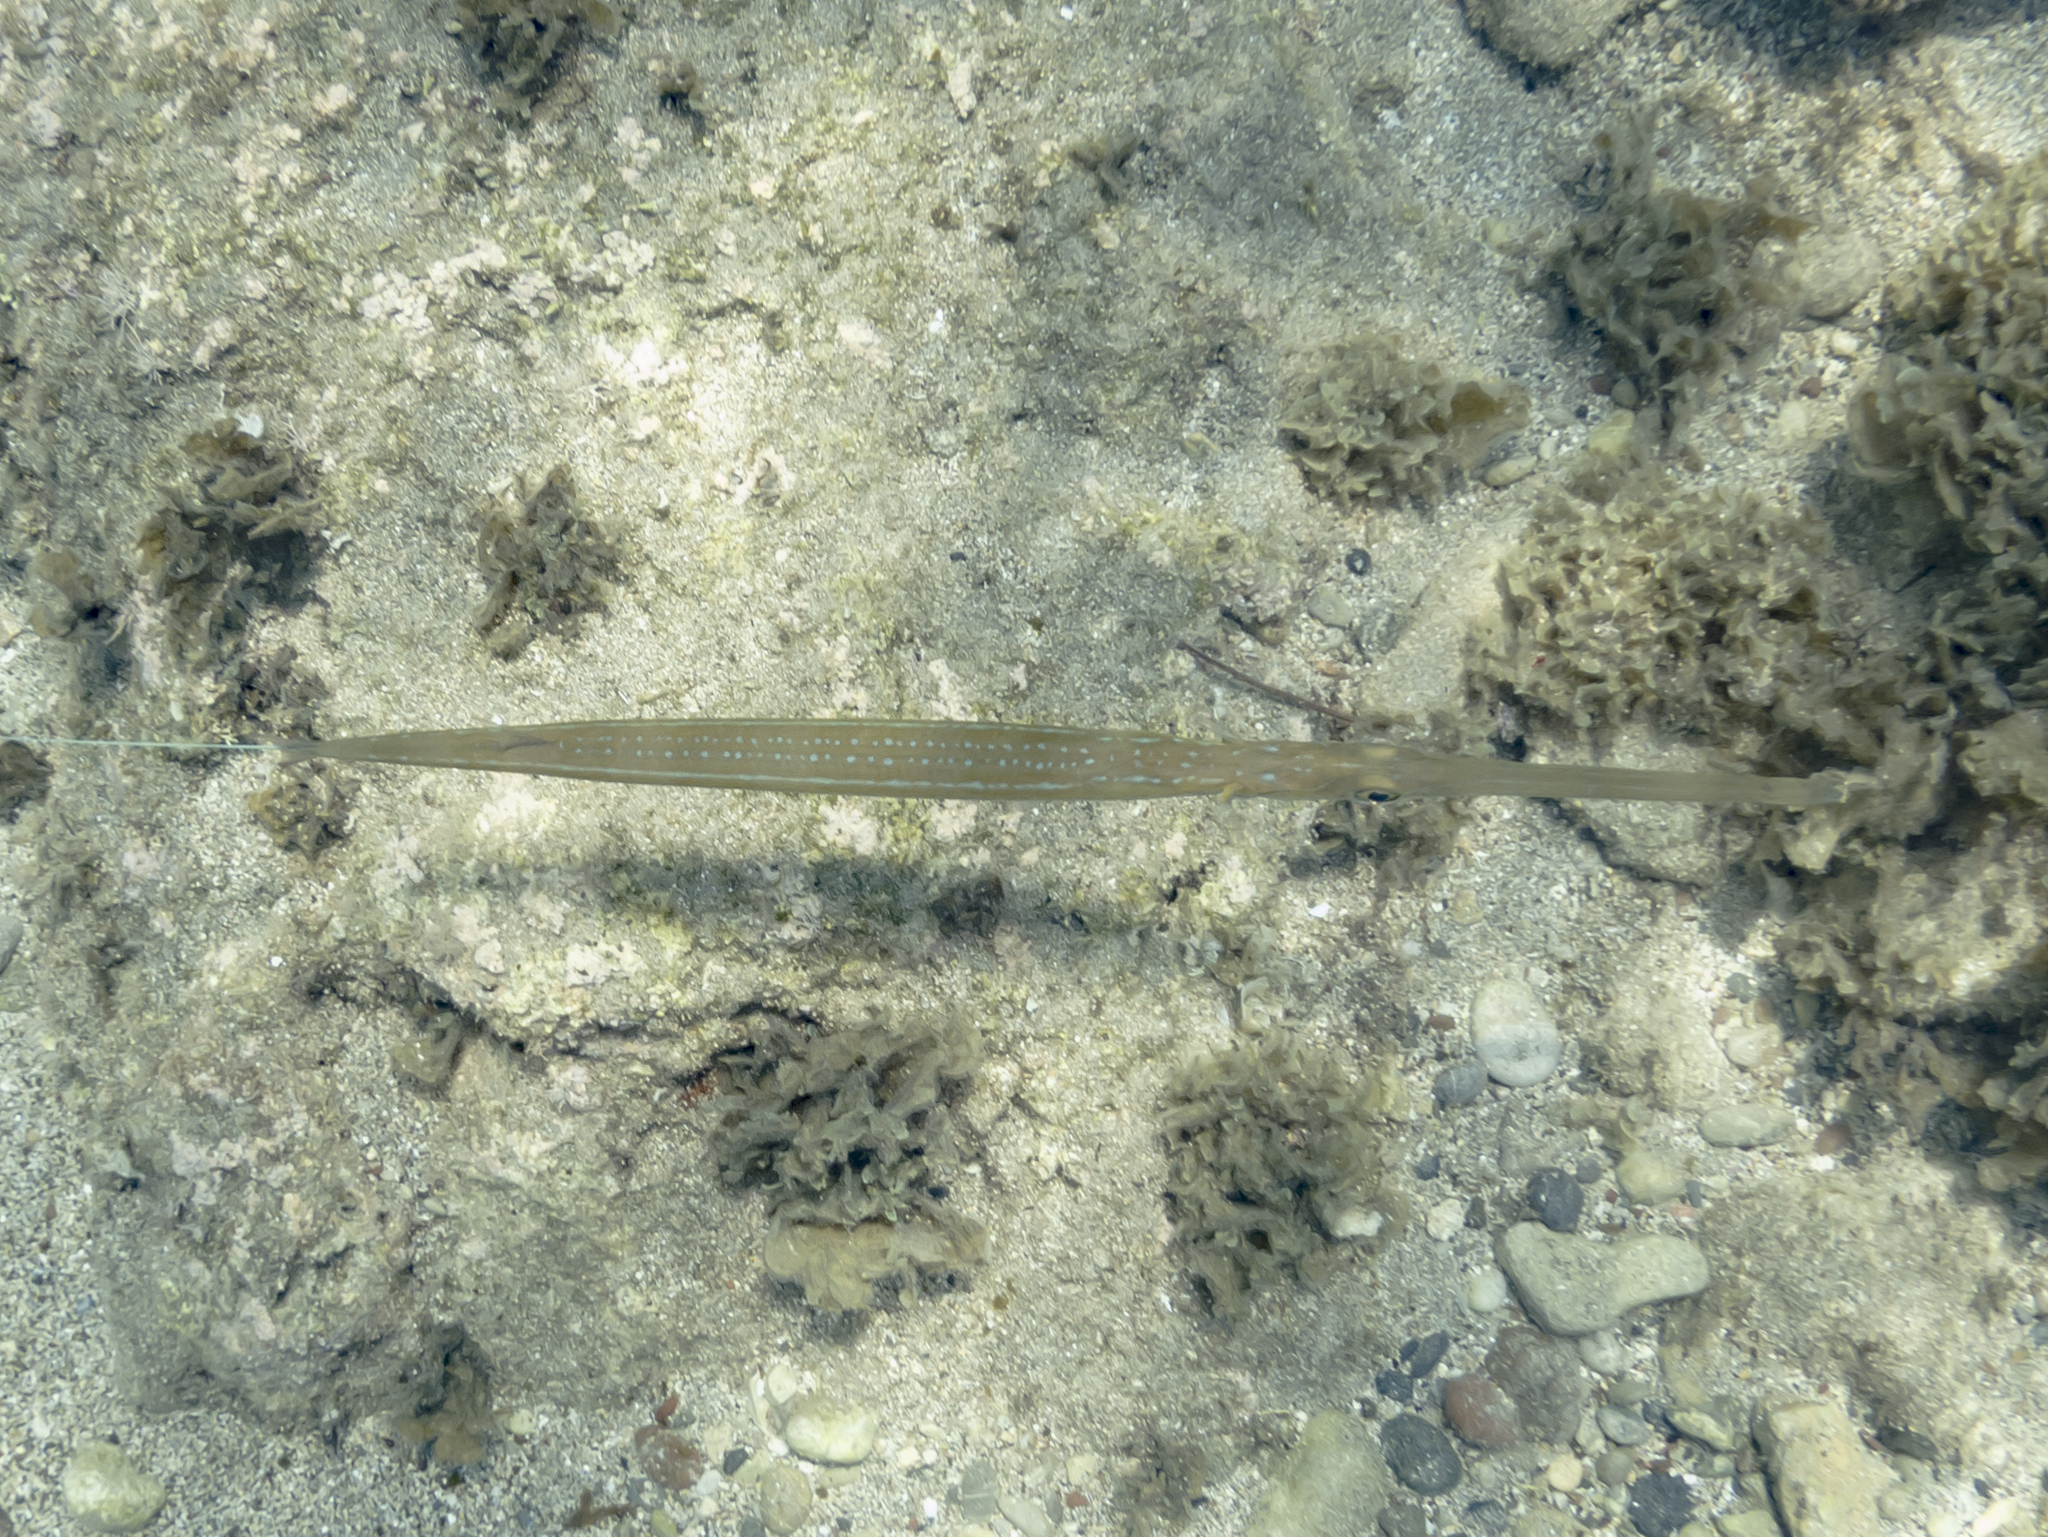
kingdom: Animalia
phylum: Chordata
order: Syngnathiformes
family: Fistulariidae
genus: Fistularia
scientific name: Fistularia commersonii
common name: Bluespotted cornetfish
